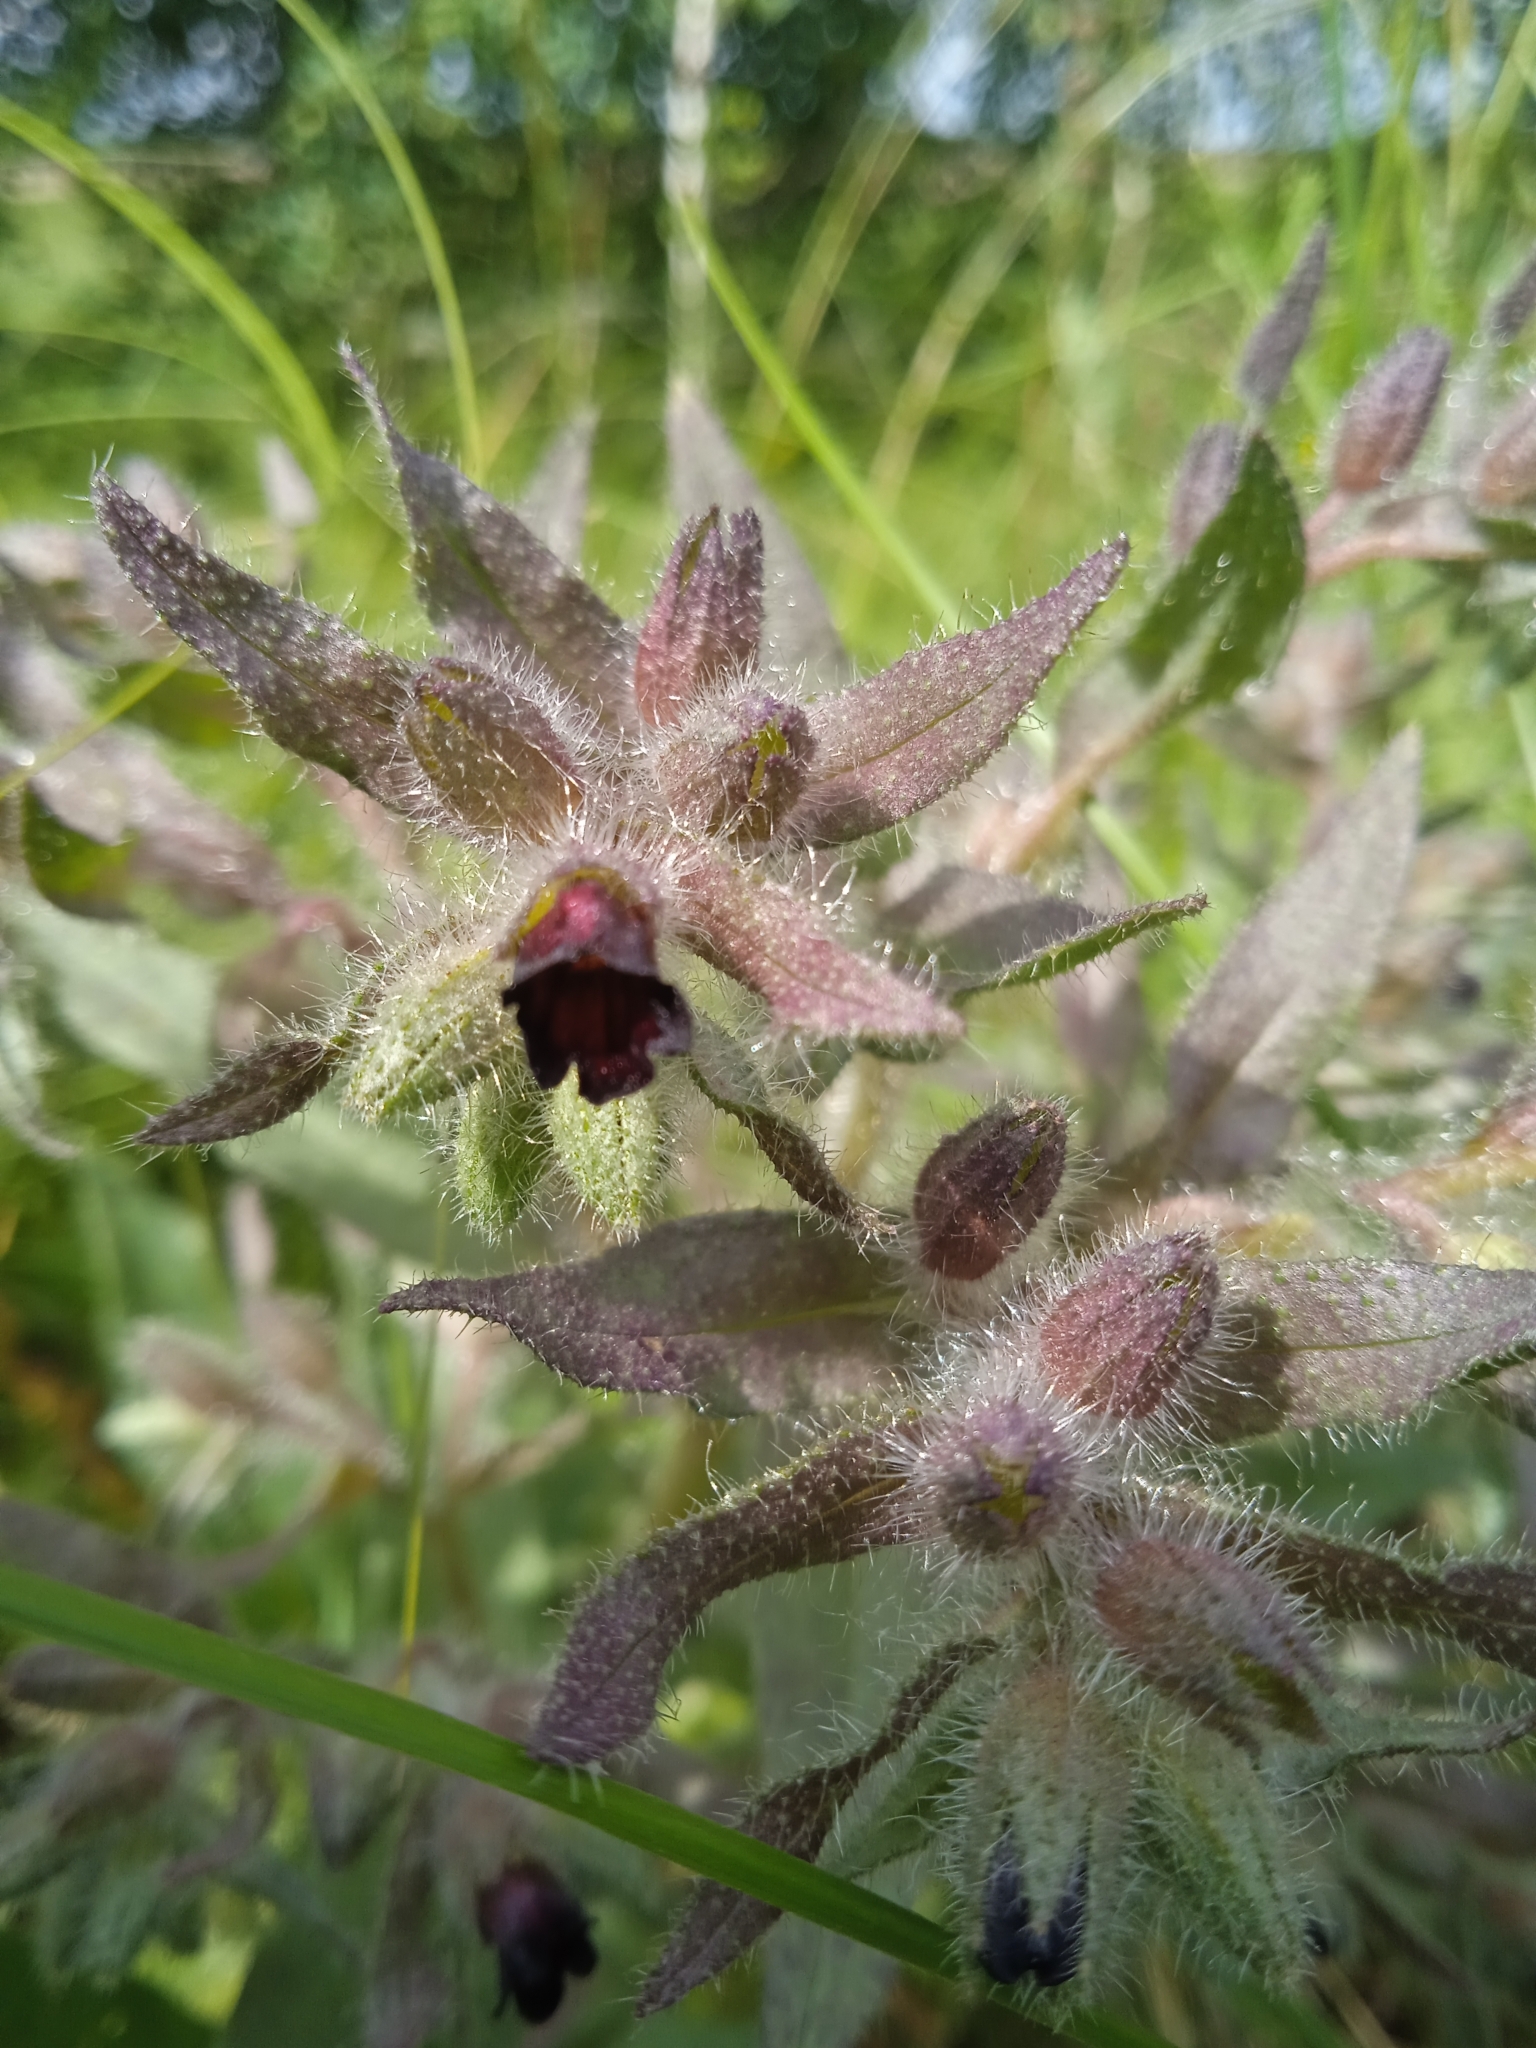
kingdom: Plantae
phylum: Tracheophyta
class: Magnoliopsida
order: Boraginales
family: Boraginaceae
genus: Nonea
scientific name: Nonea pulla
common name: Brown nonea
